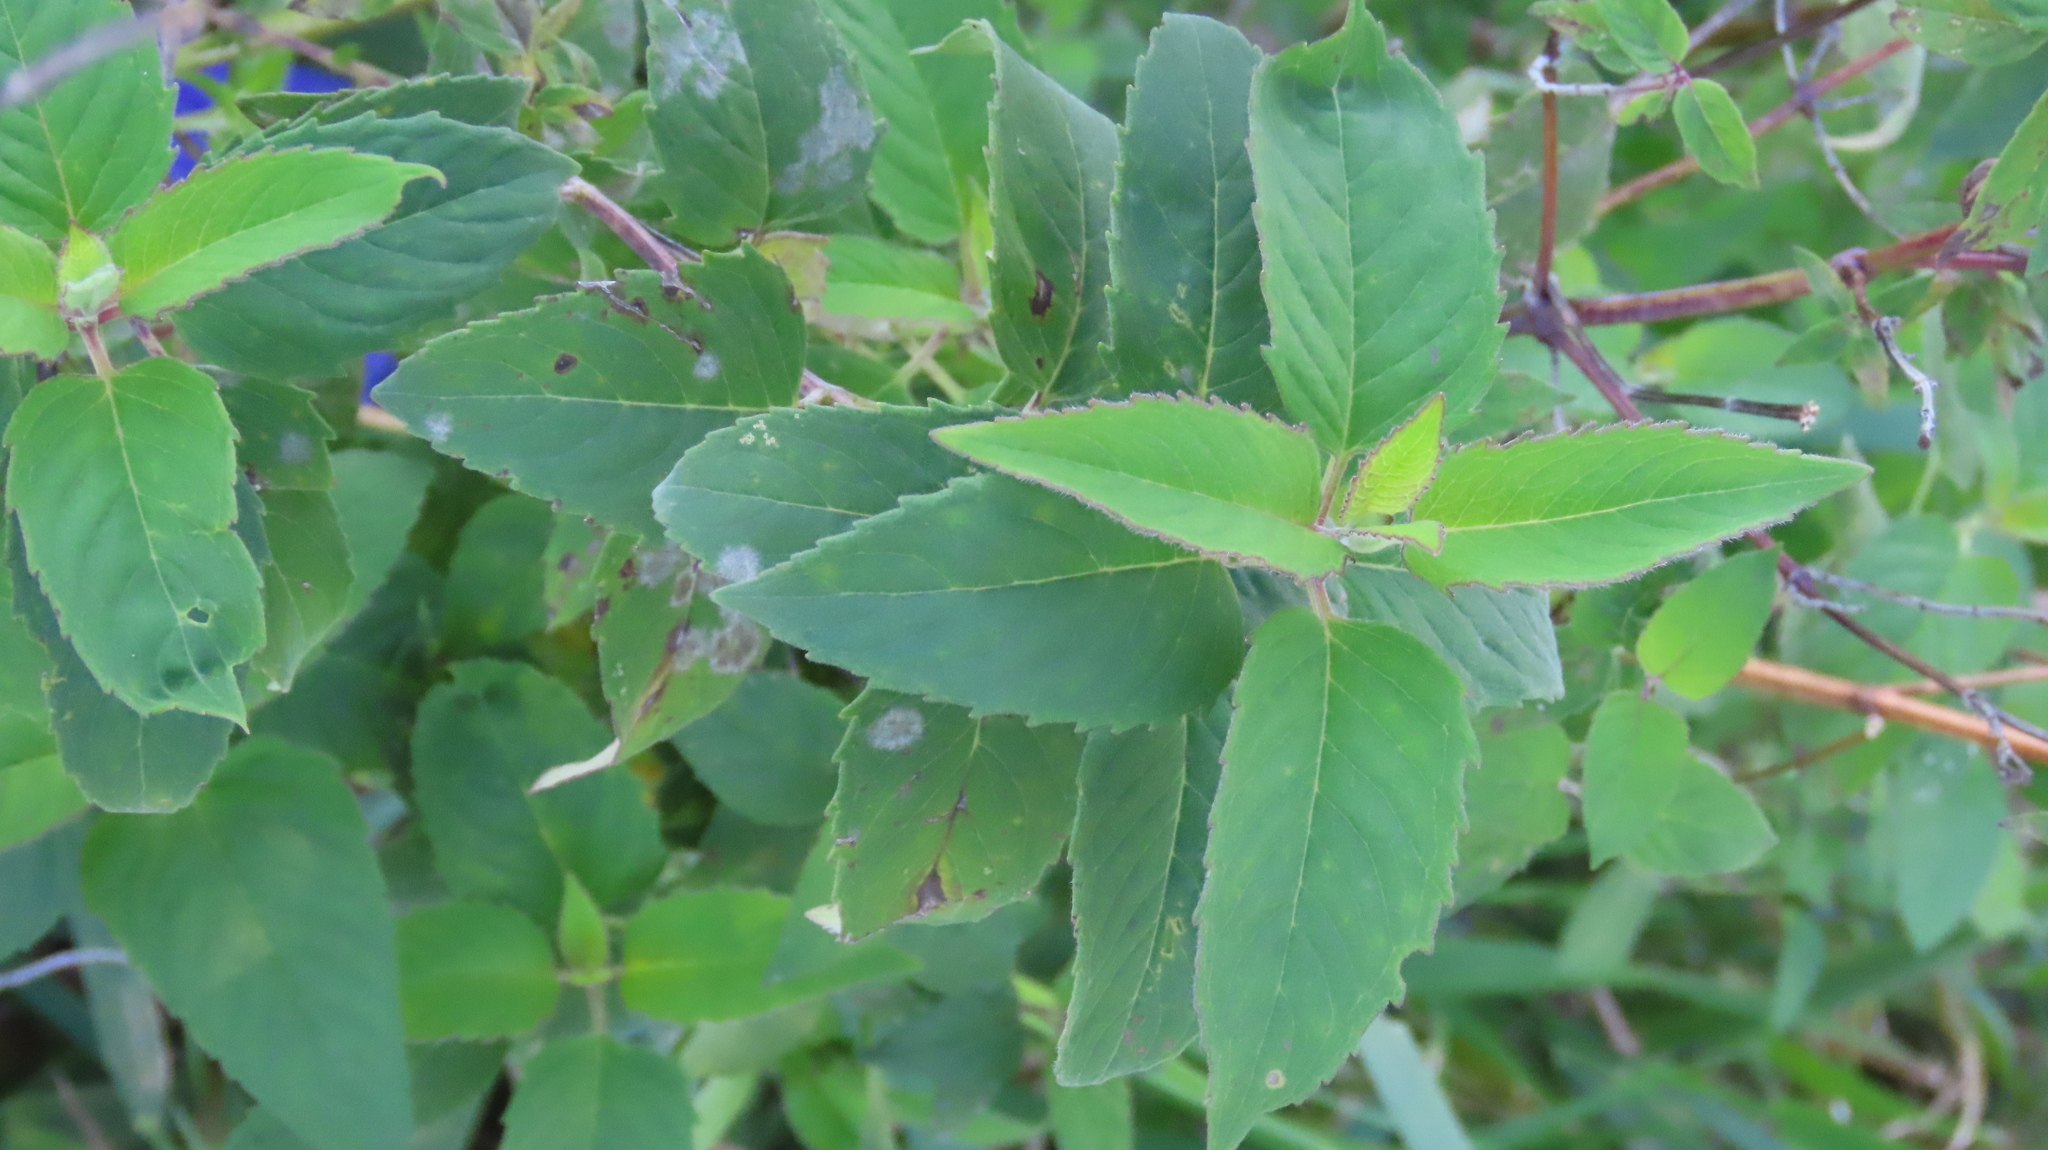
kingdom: Plantae
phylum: Tracheophyta
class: Magnoliopsida
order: Lamiales
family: Lamiaceae
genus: Monarda
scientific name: Monarda fistulosa
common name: Purple beebalm
